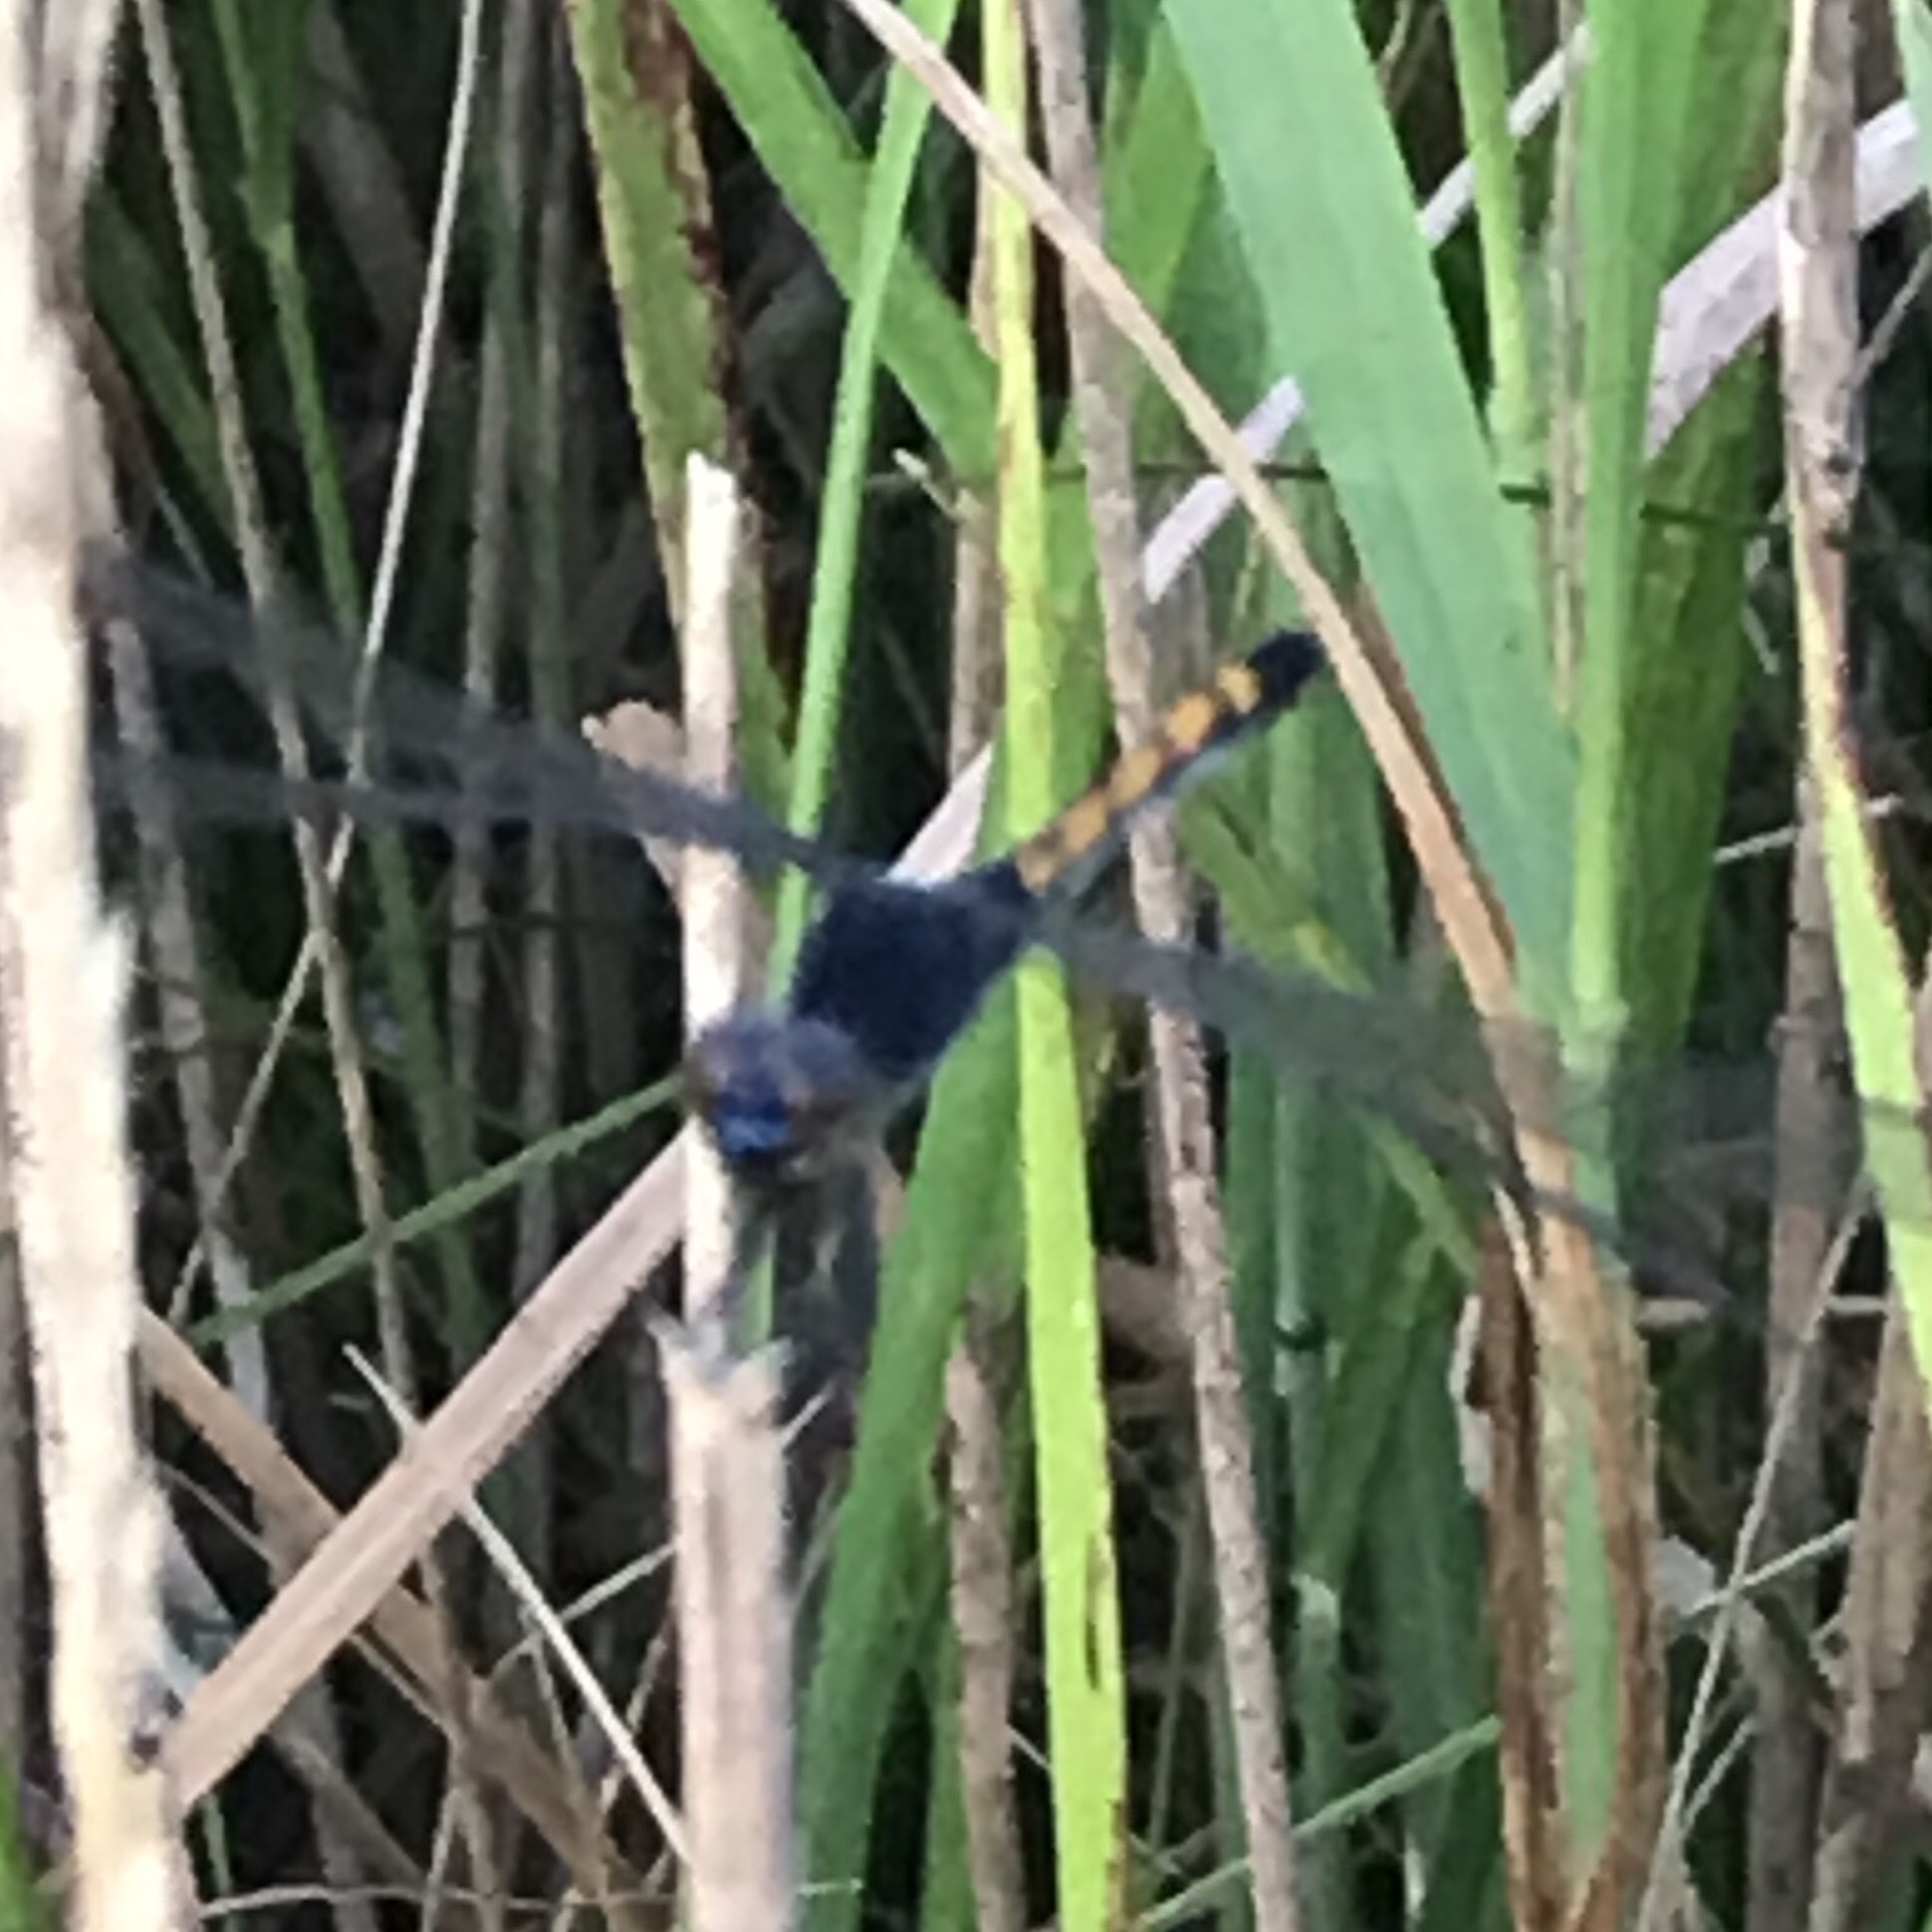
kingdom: Animalia
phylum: Arthropoda
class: Insecta
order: Odonata
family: Libellulidae
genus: Erythrodiplax
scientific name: Erythrodiplax berenice
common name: Seaside dragonlet
